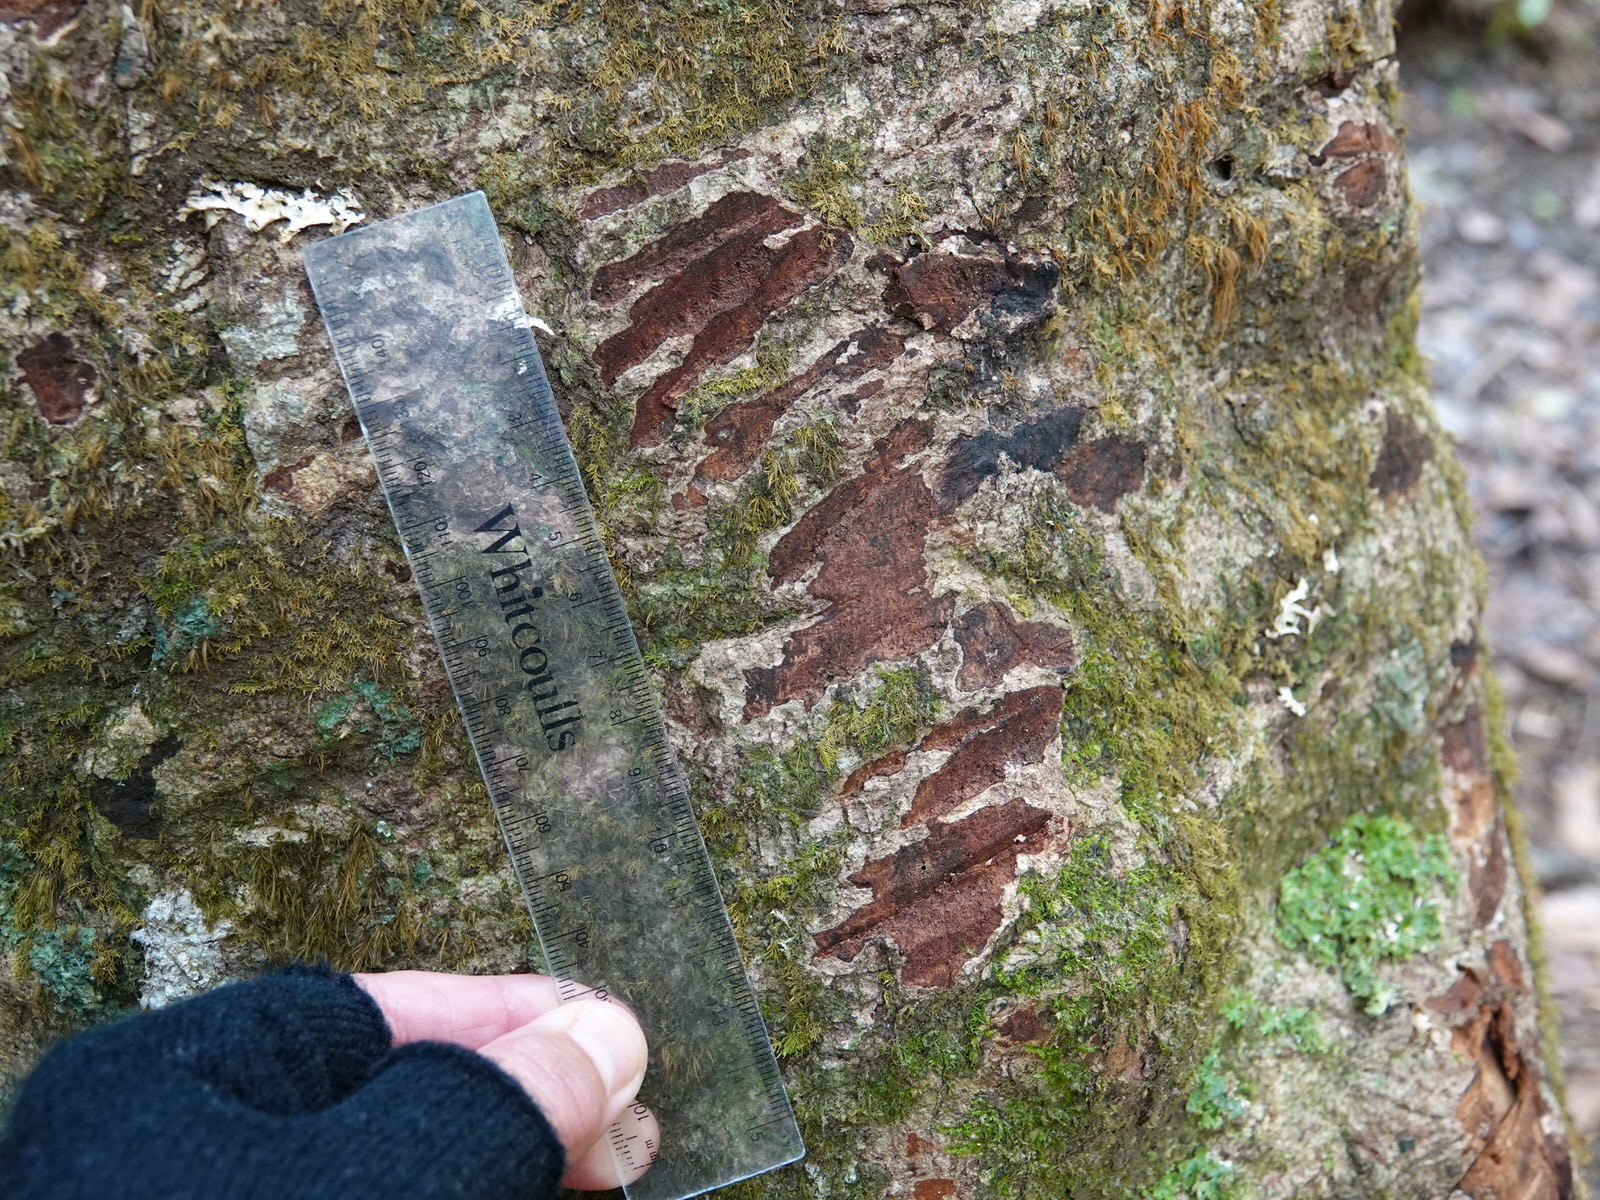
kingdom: Animalia
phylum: Chordata
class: Mammalia
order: Diprotodontia
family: Phalangeridae
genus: Trichosurus
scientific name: Trichosurus vulpecula
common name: Common brushtail
